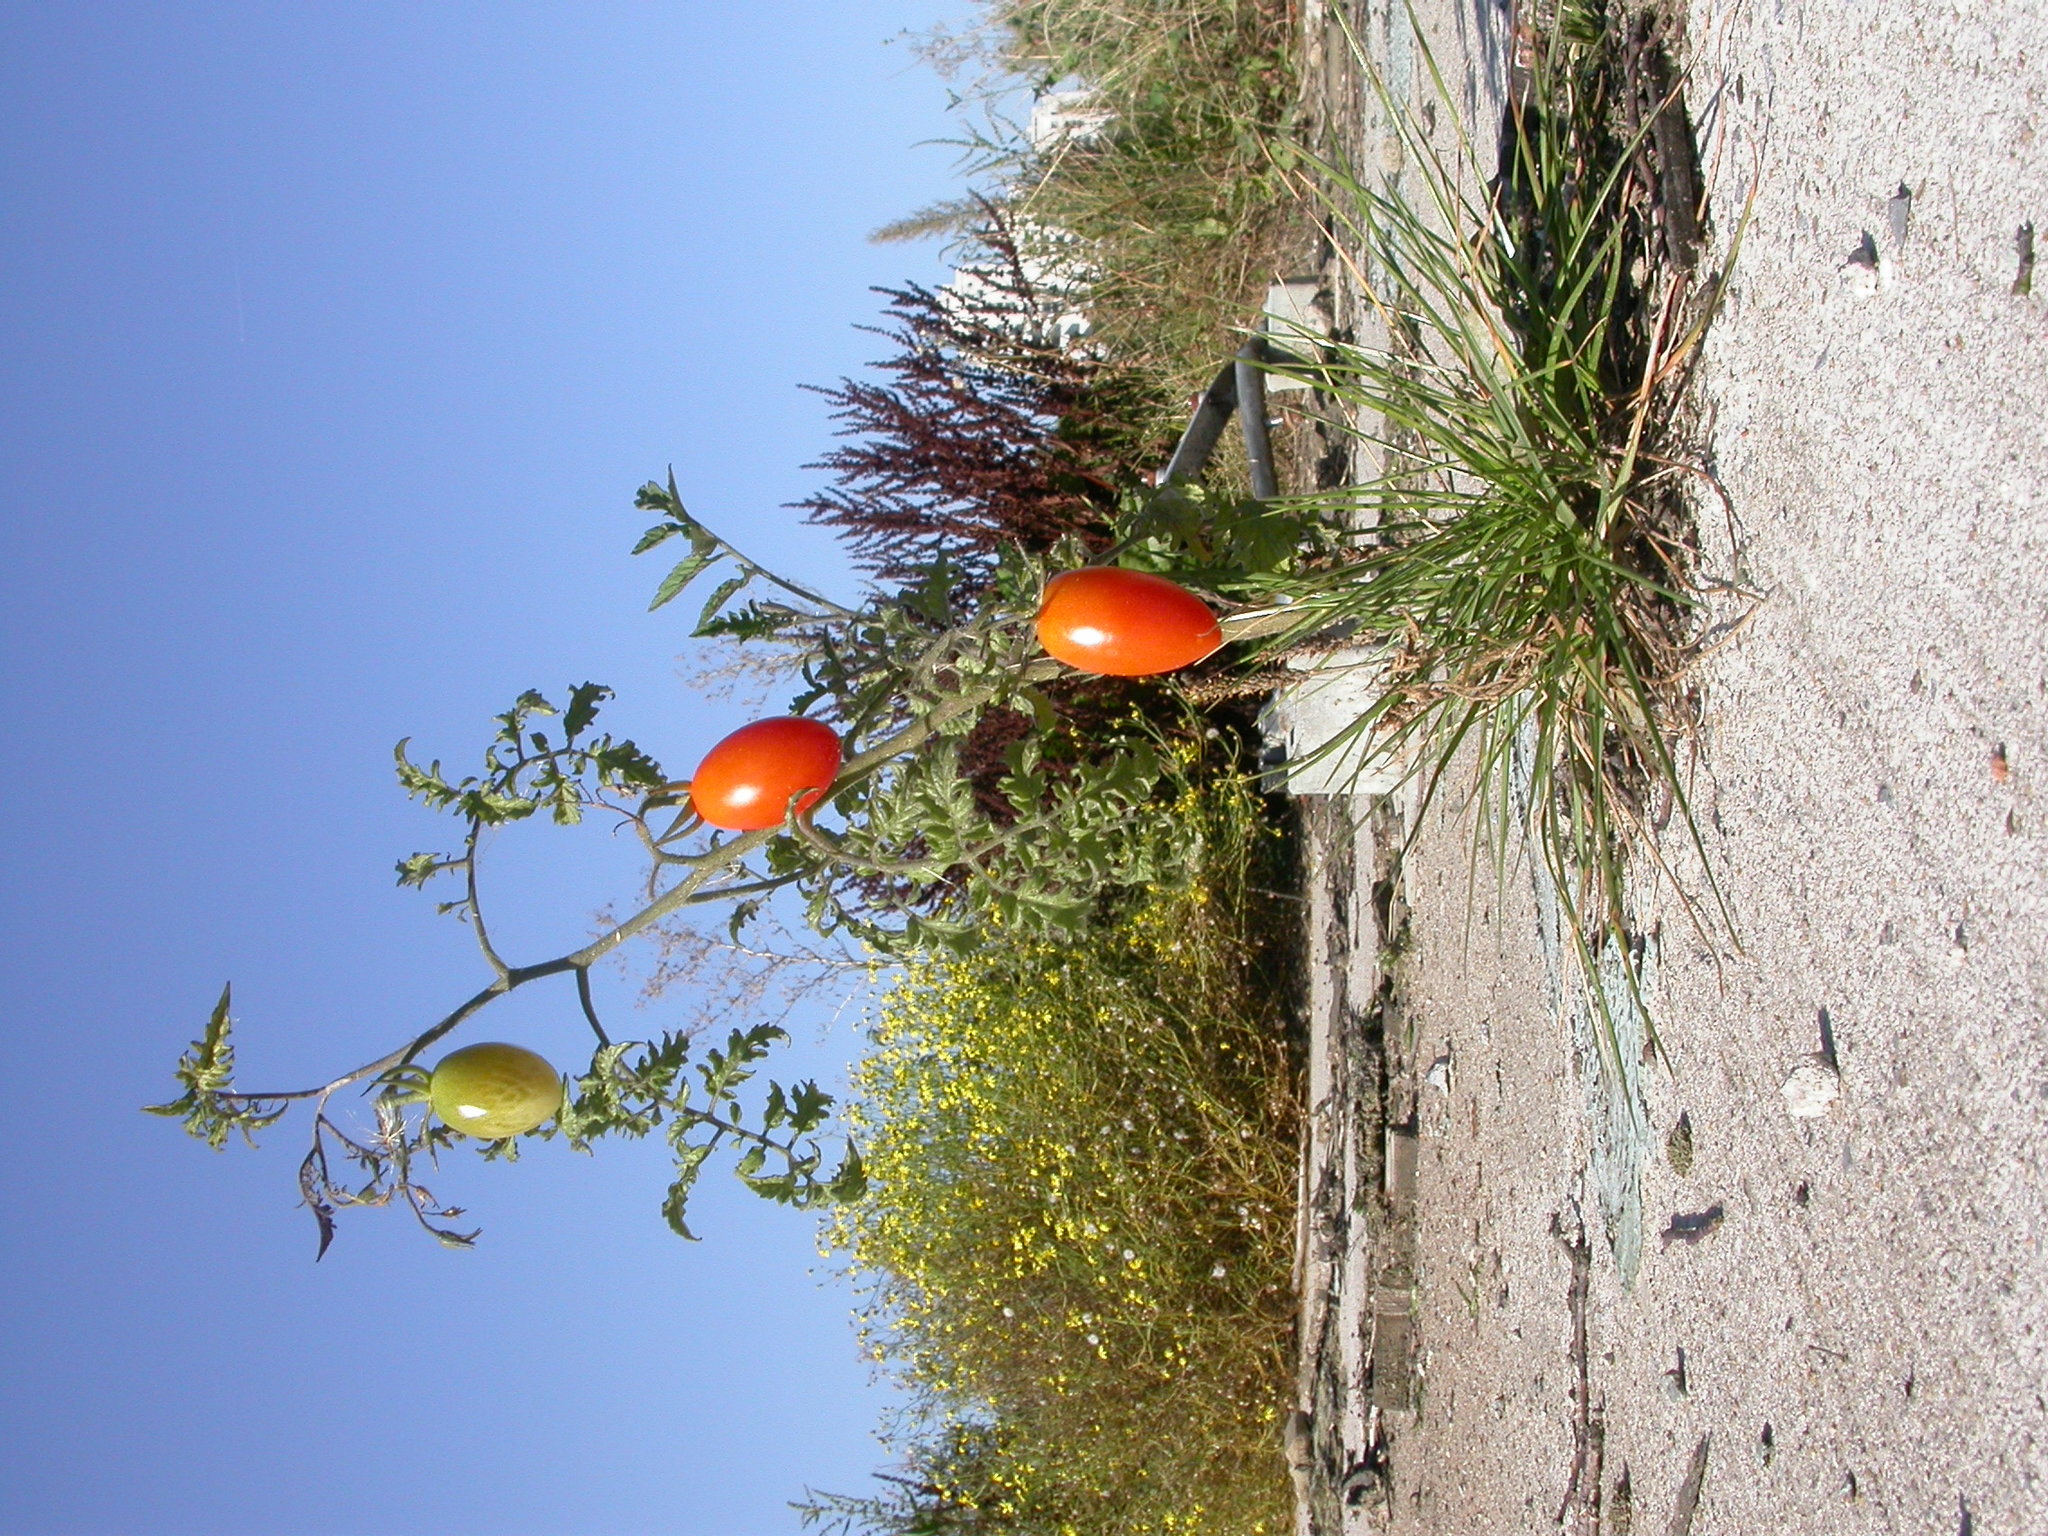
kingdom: Plantae
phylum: Tracheophyta
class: Magnoliopsida
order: Solanales
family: Solanaceae
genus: Solanum
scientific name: Solanum lycopersicum
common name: Garden tomato
